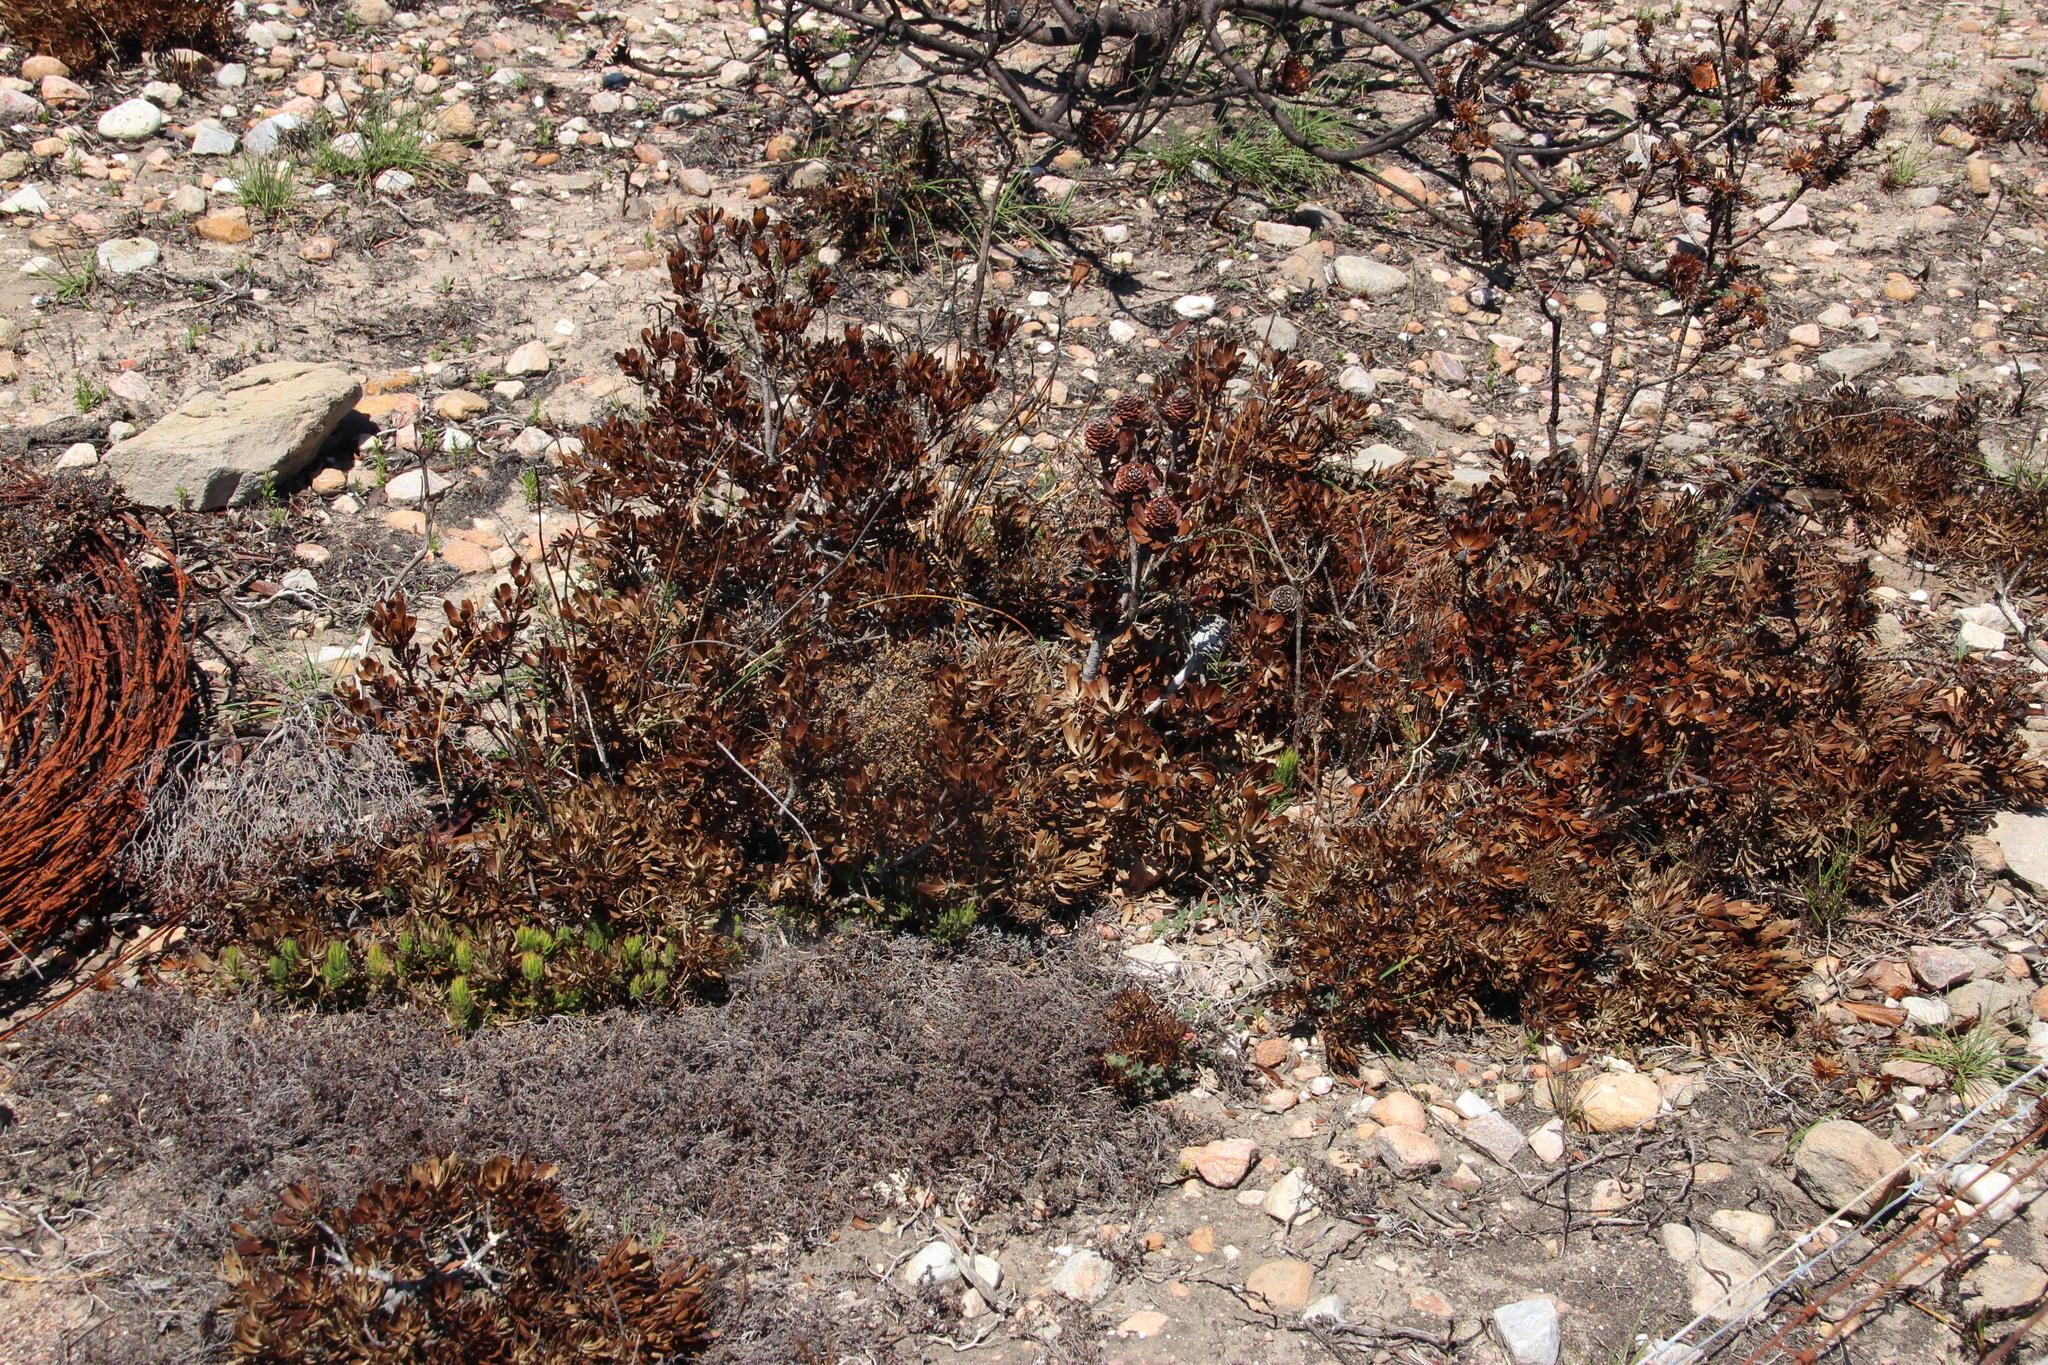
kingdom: Plantae
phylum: Tracheophyta
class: Magnoliopsida
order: Proteales
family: Proteaceae
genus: Leucadendron
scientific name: Leucadendron muirii
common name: Silver-ball conebush
